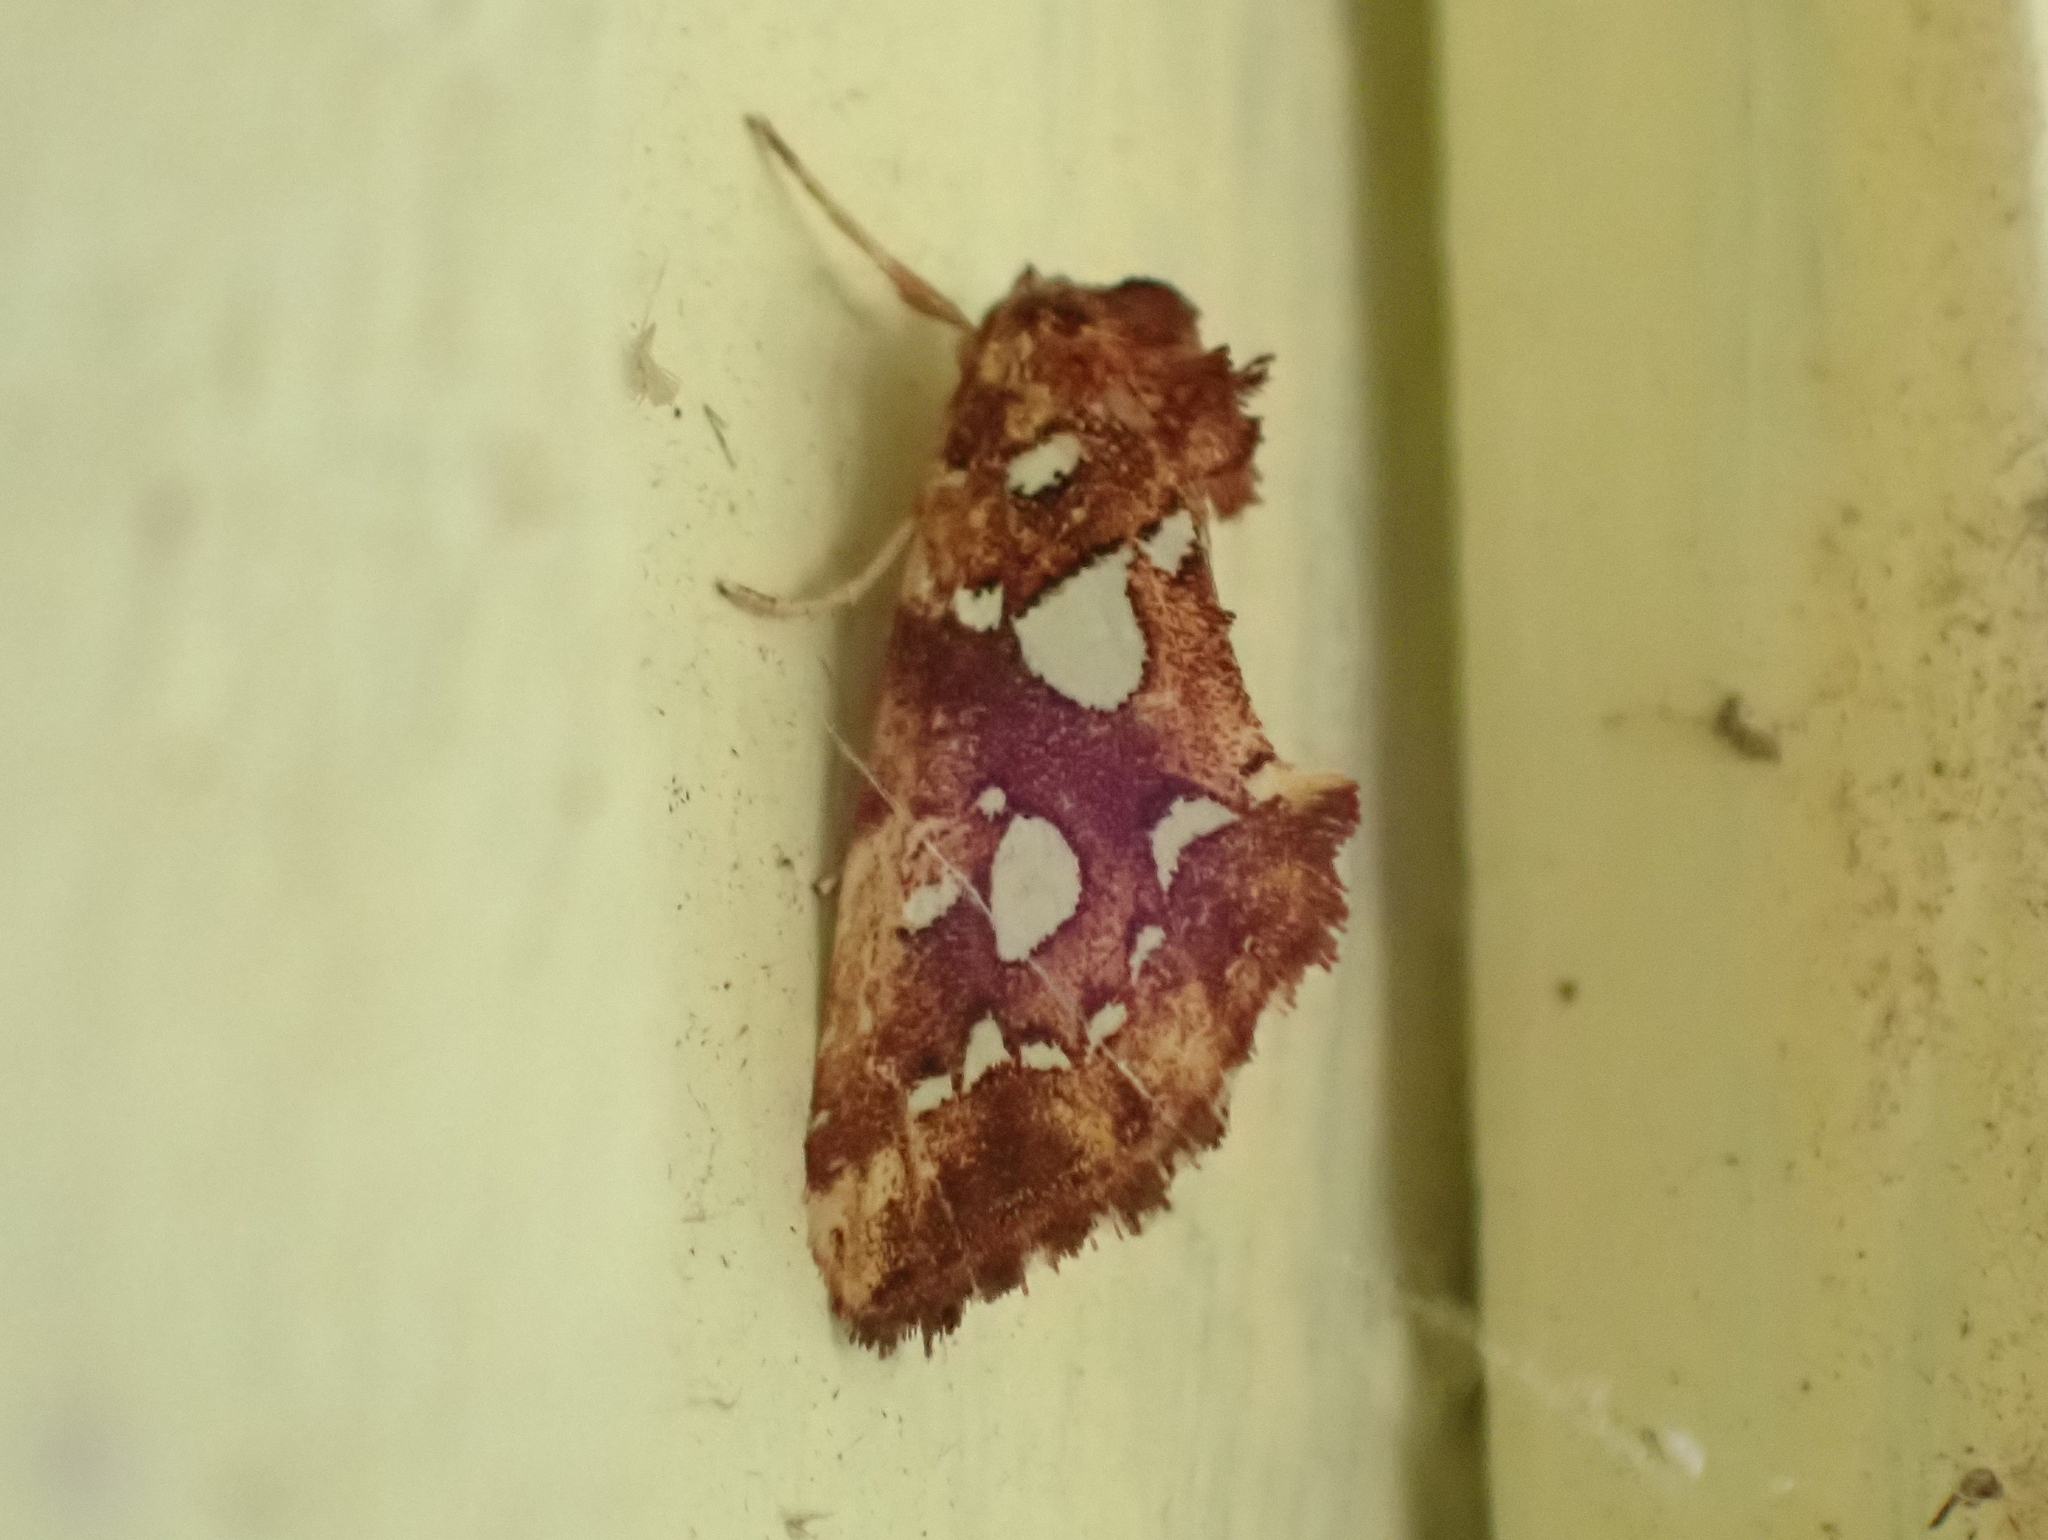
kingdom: Animalia
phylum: Arthropoda
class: Insecta
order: Lepidoptera
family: Noctuidae
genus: Callopistria
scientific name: Callopistria cordata
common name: Silver-spotted fern moth
